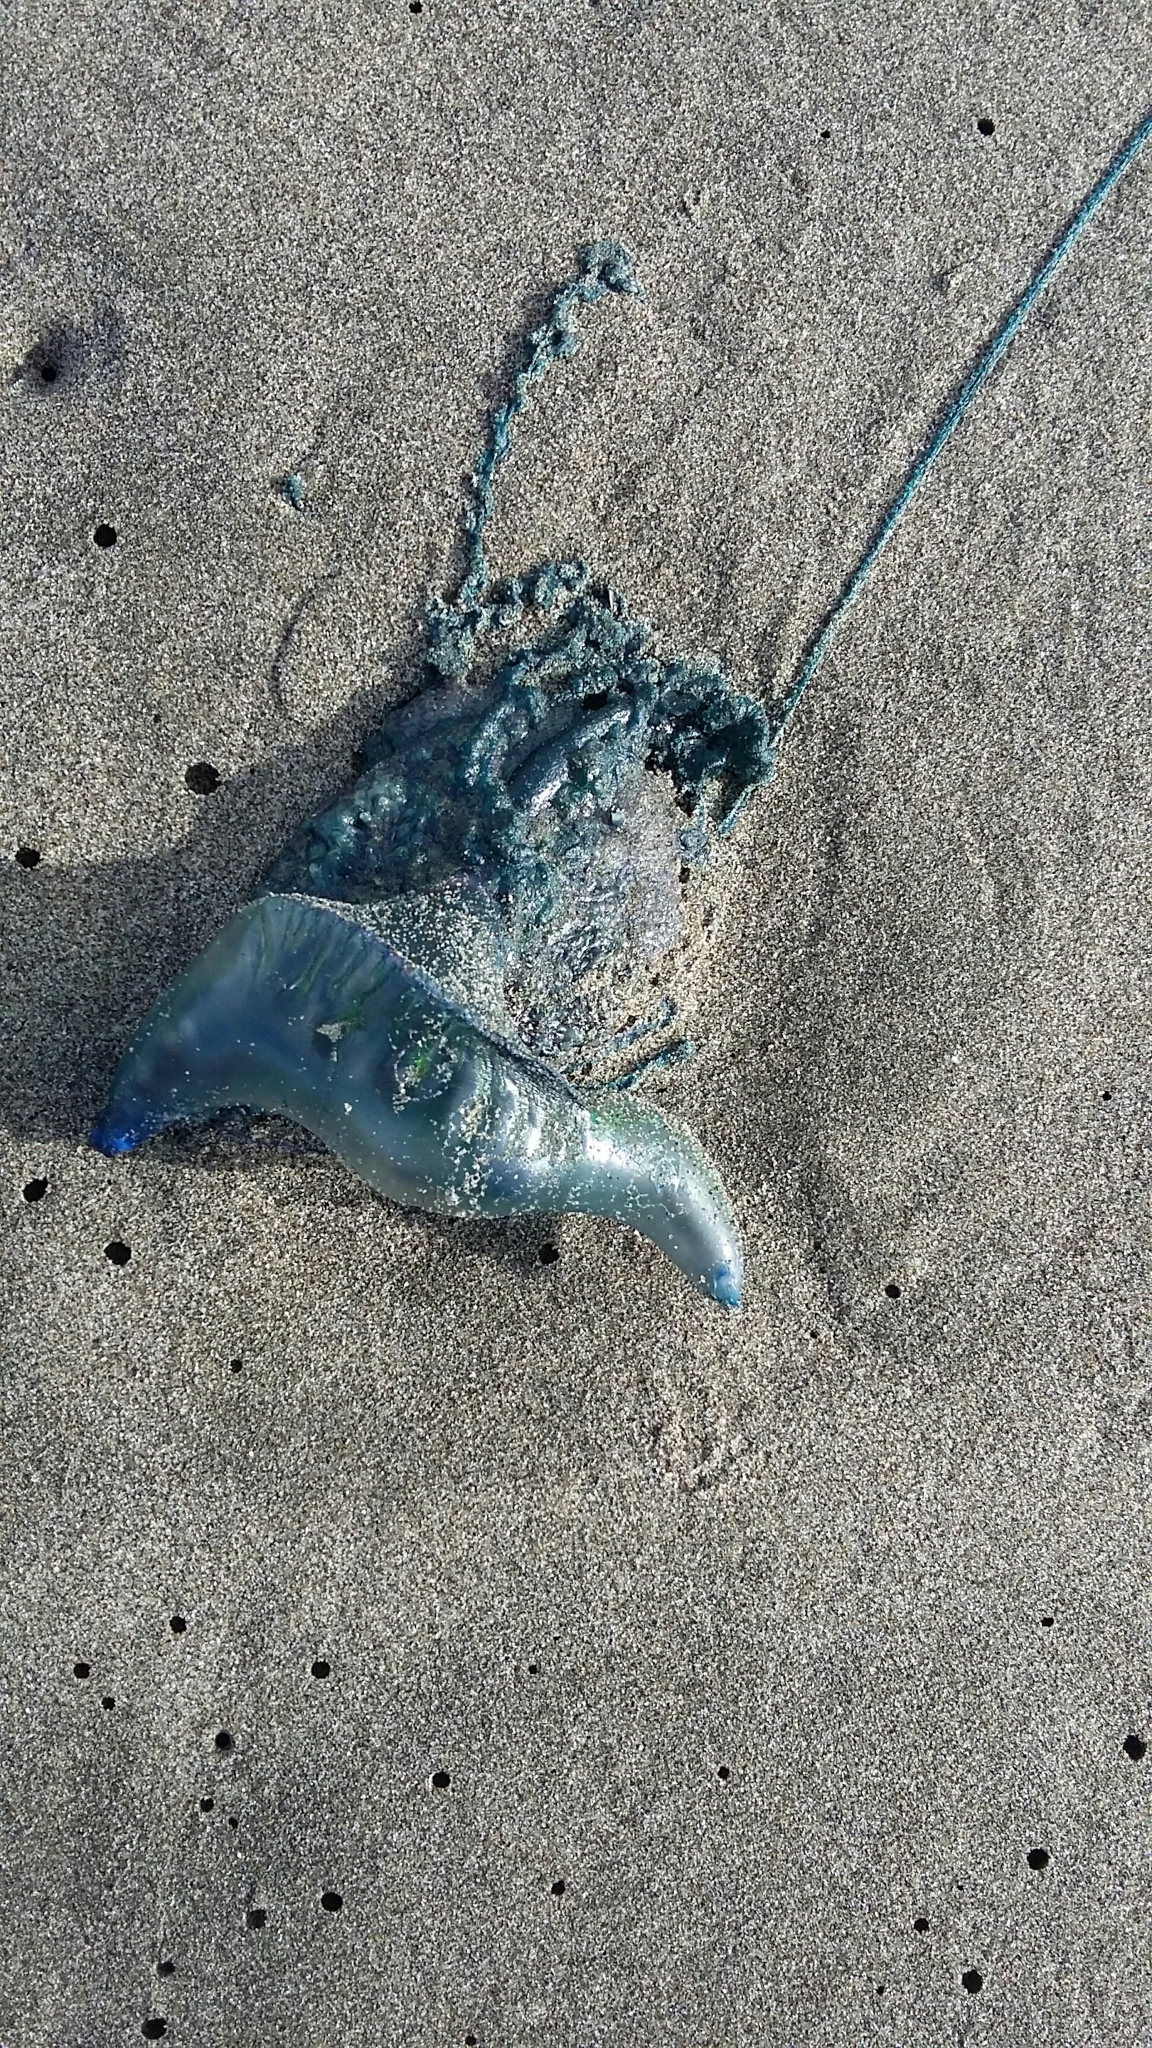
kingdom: Animalia
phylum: Cnidaria
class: Hydrozoa
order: Siphonophorae
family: Physaliidae
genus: Physalia
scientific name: Physalia physalis
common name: Portuguese man-of-war
